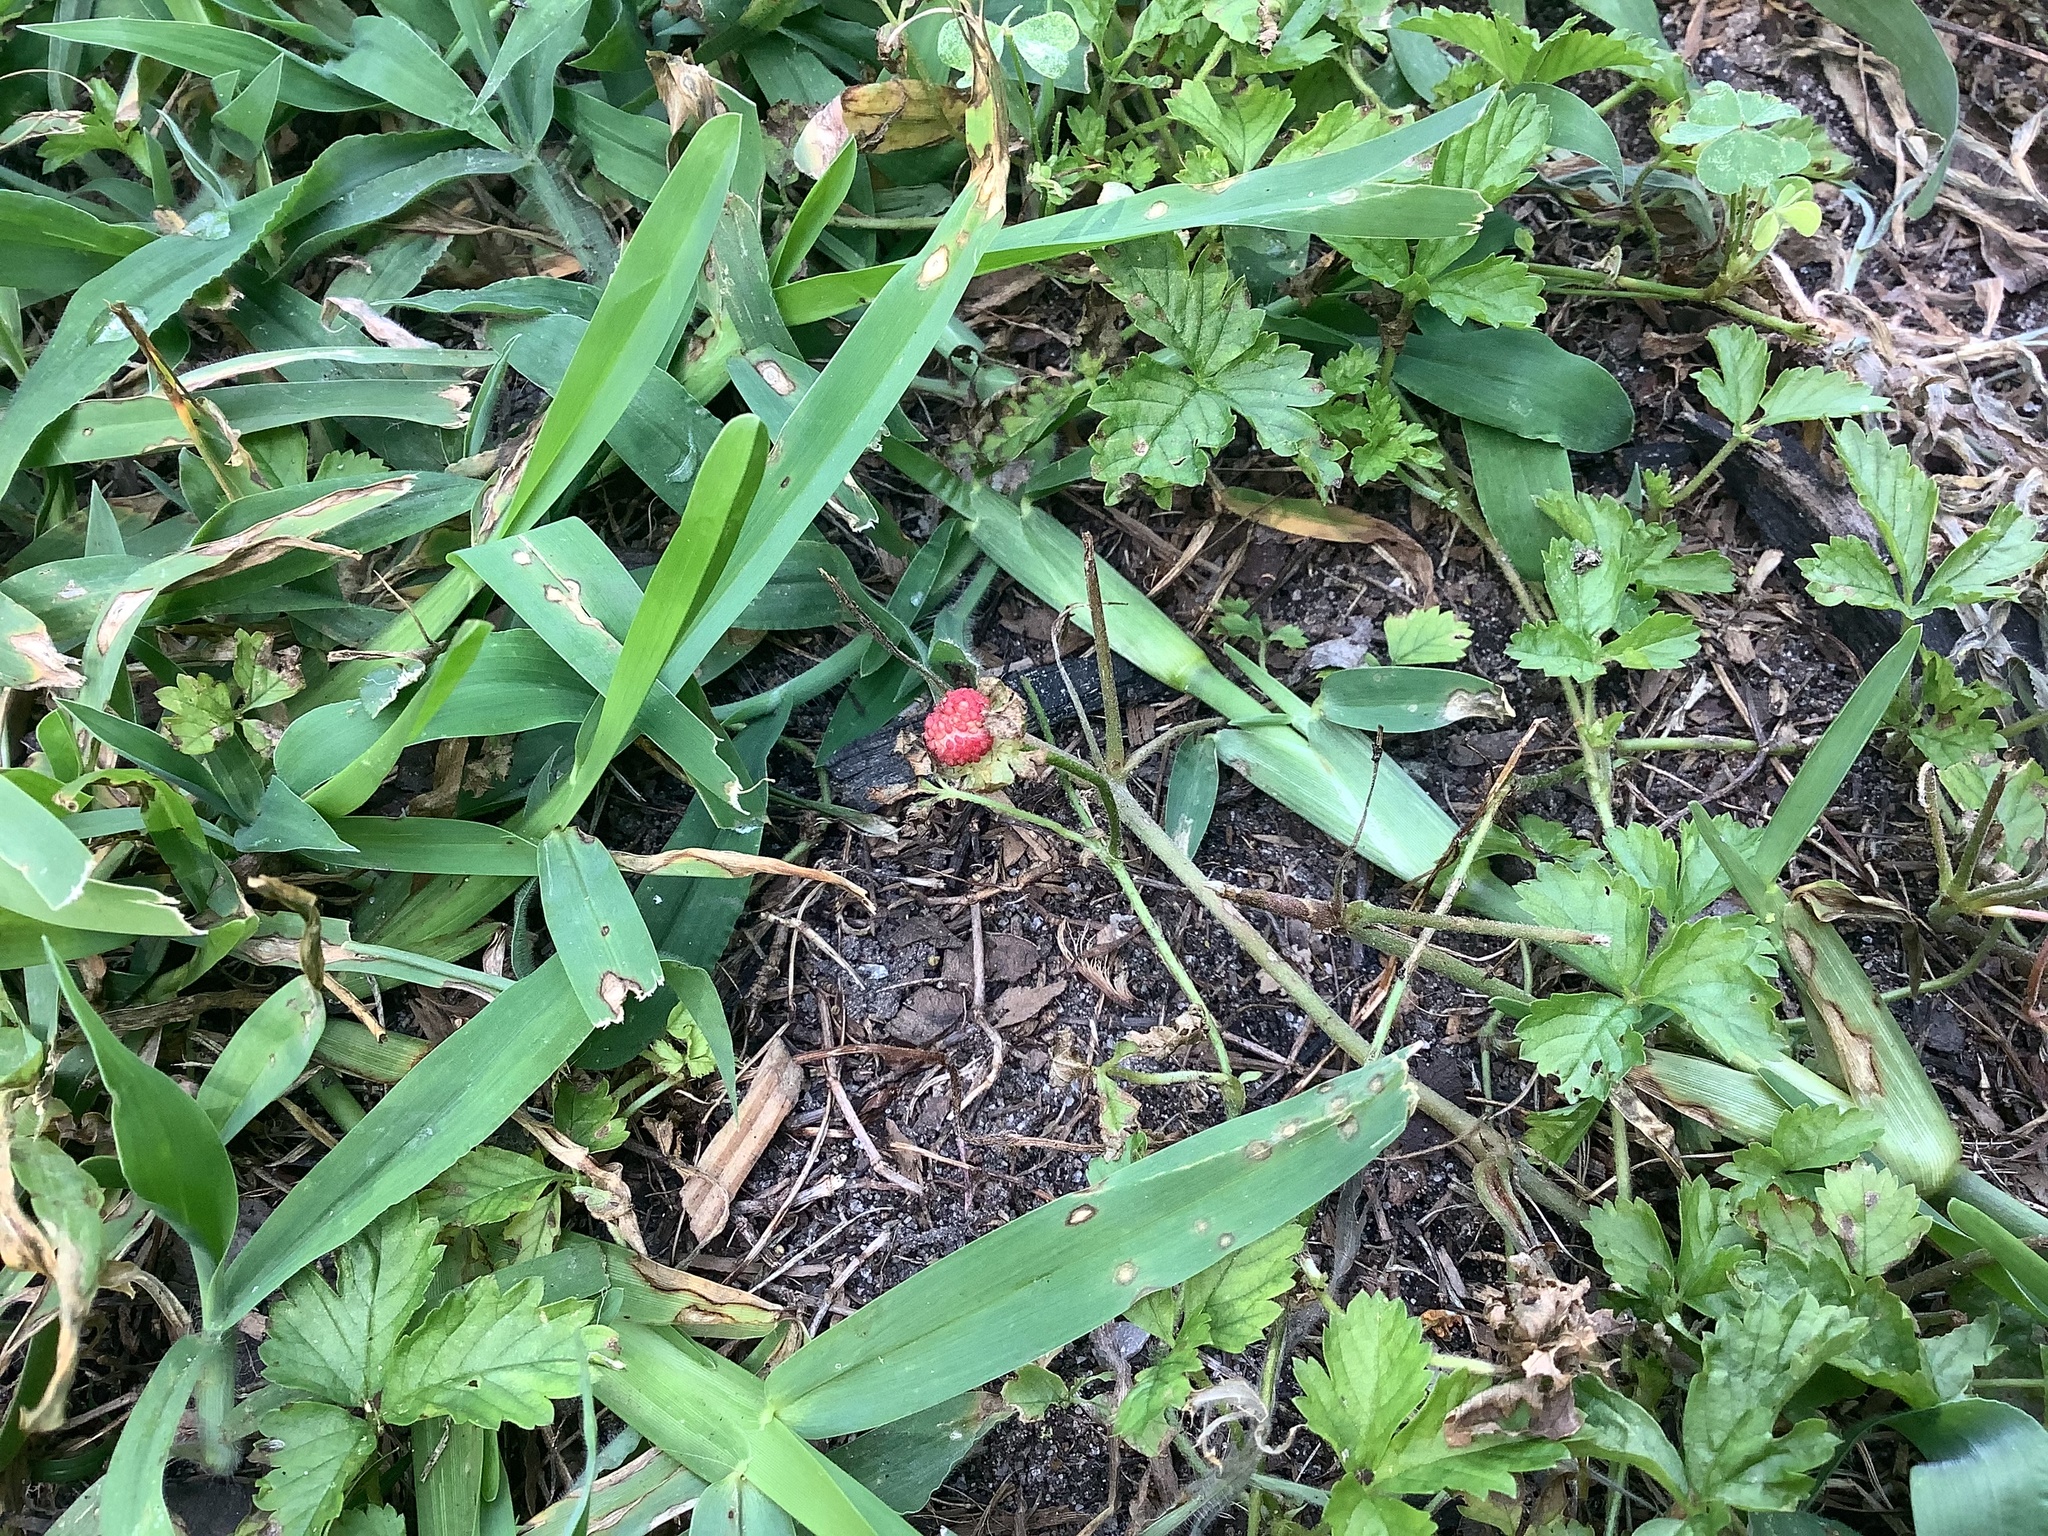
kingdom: Plantae
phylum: Tracheophyta
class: Magnoliopsida
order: Rosales
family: Rosaceae
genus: Potentilla
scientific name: Potentilla indica
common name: Yellow-flowered strawberry
